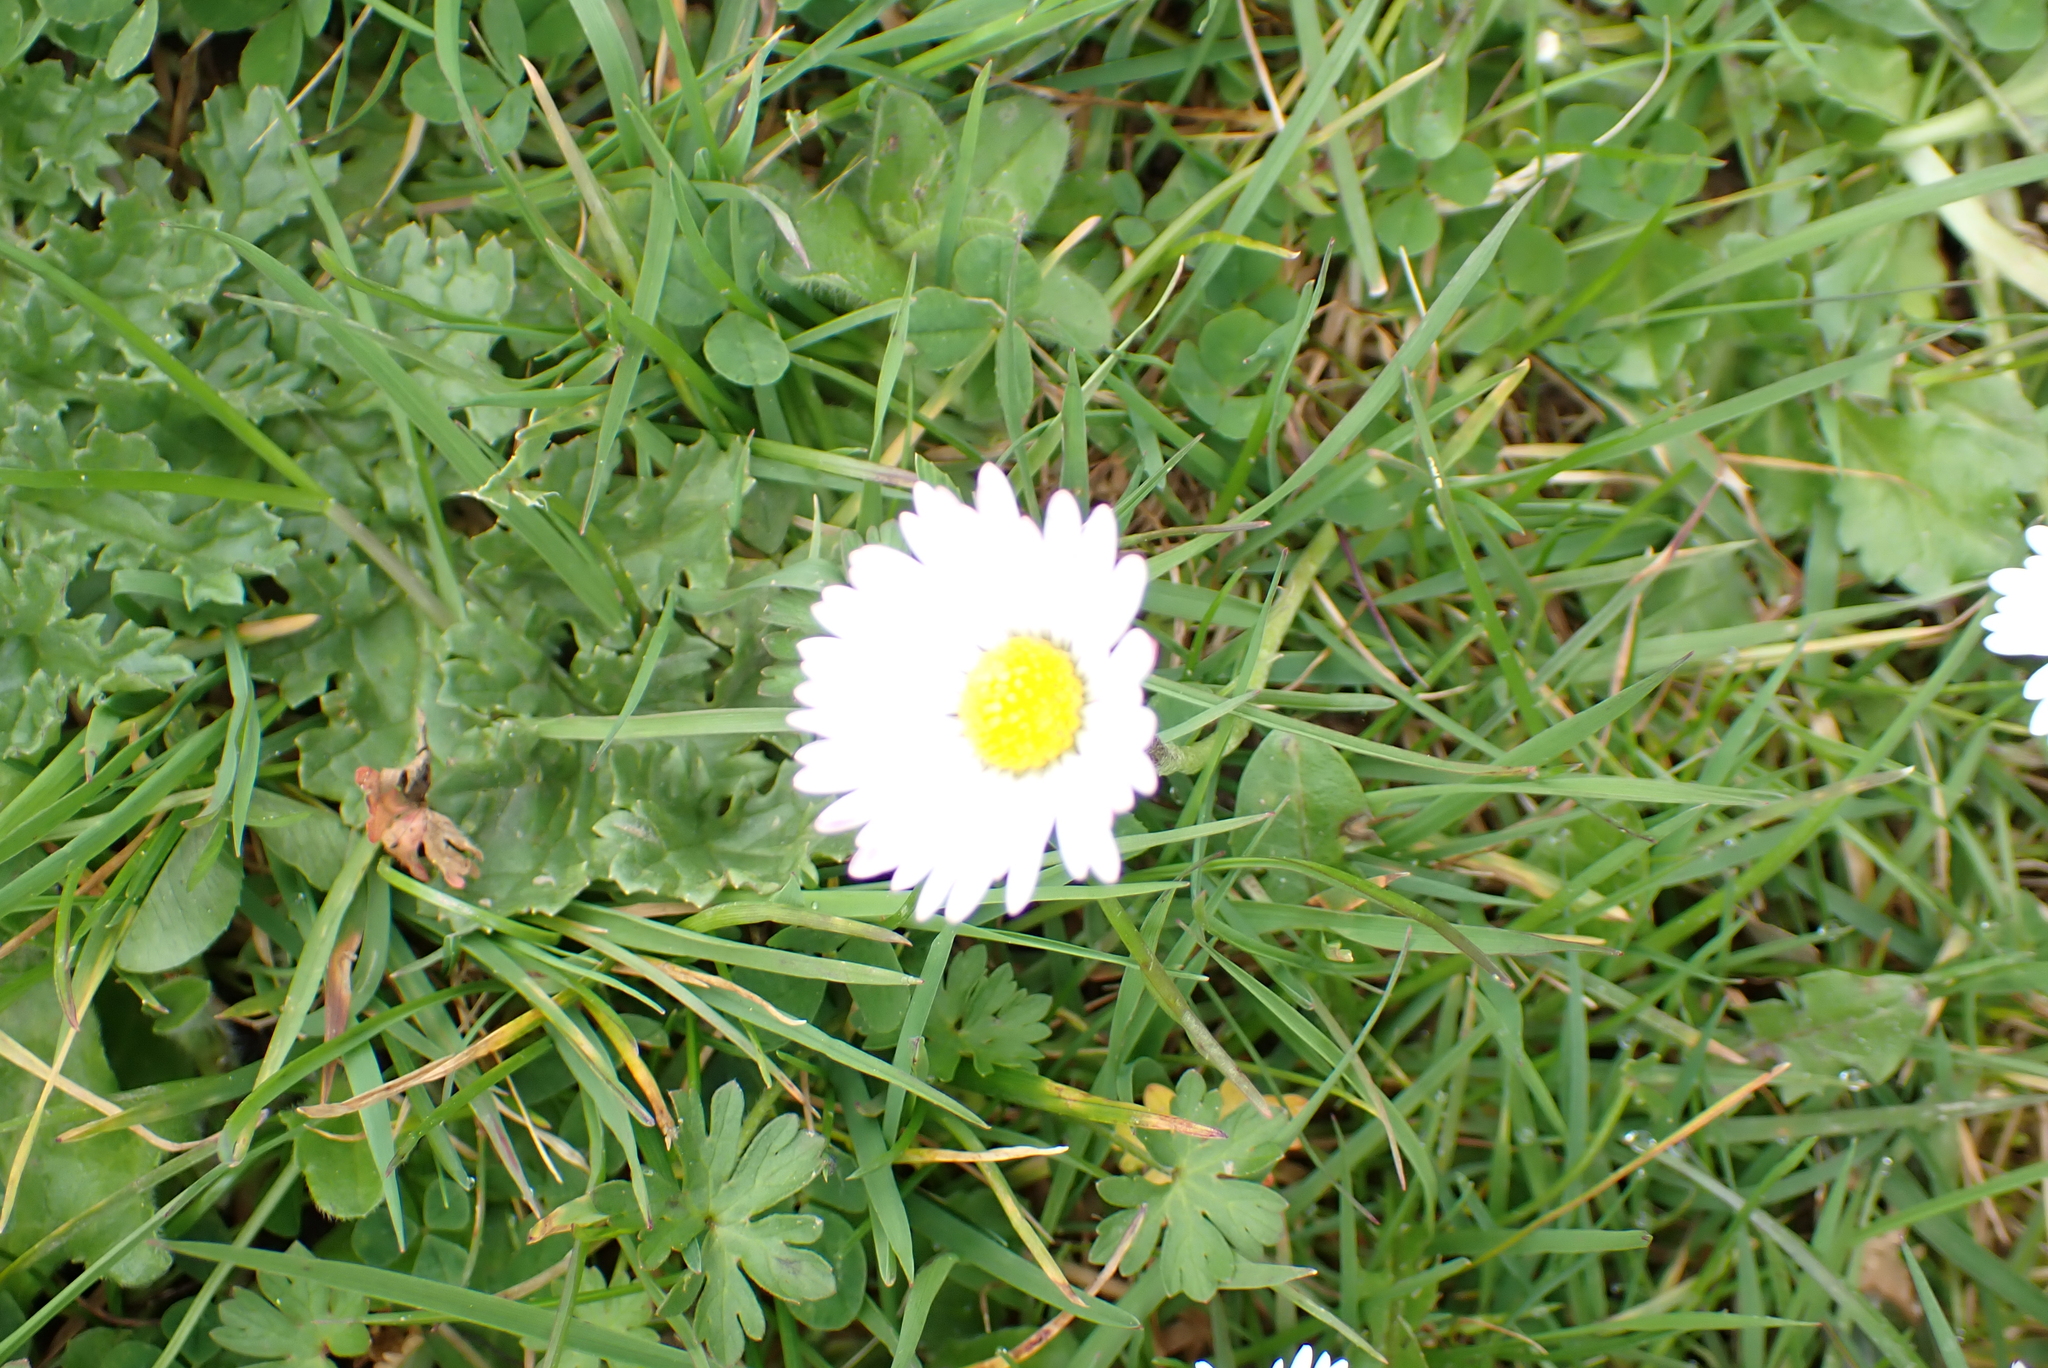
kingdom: Plantae
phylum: Tracheophyta
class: Magnoliopsida
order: Asterales
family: Asteraceae
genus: Bellis
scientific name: Bellis perennis
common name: Lawndaisy
